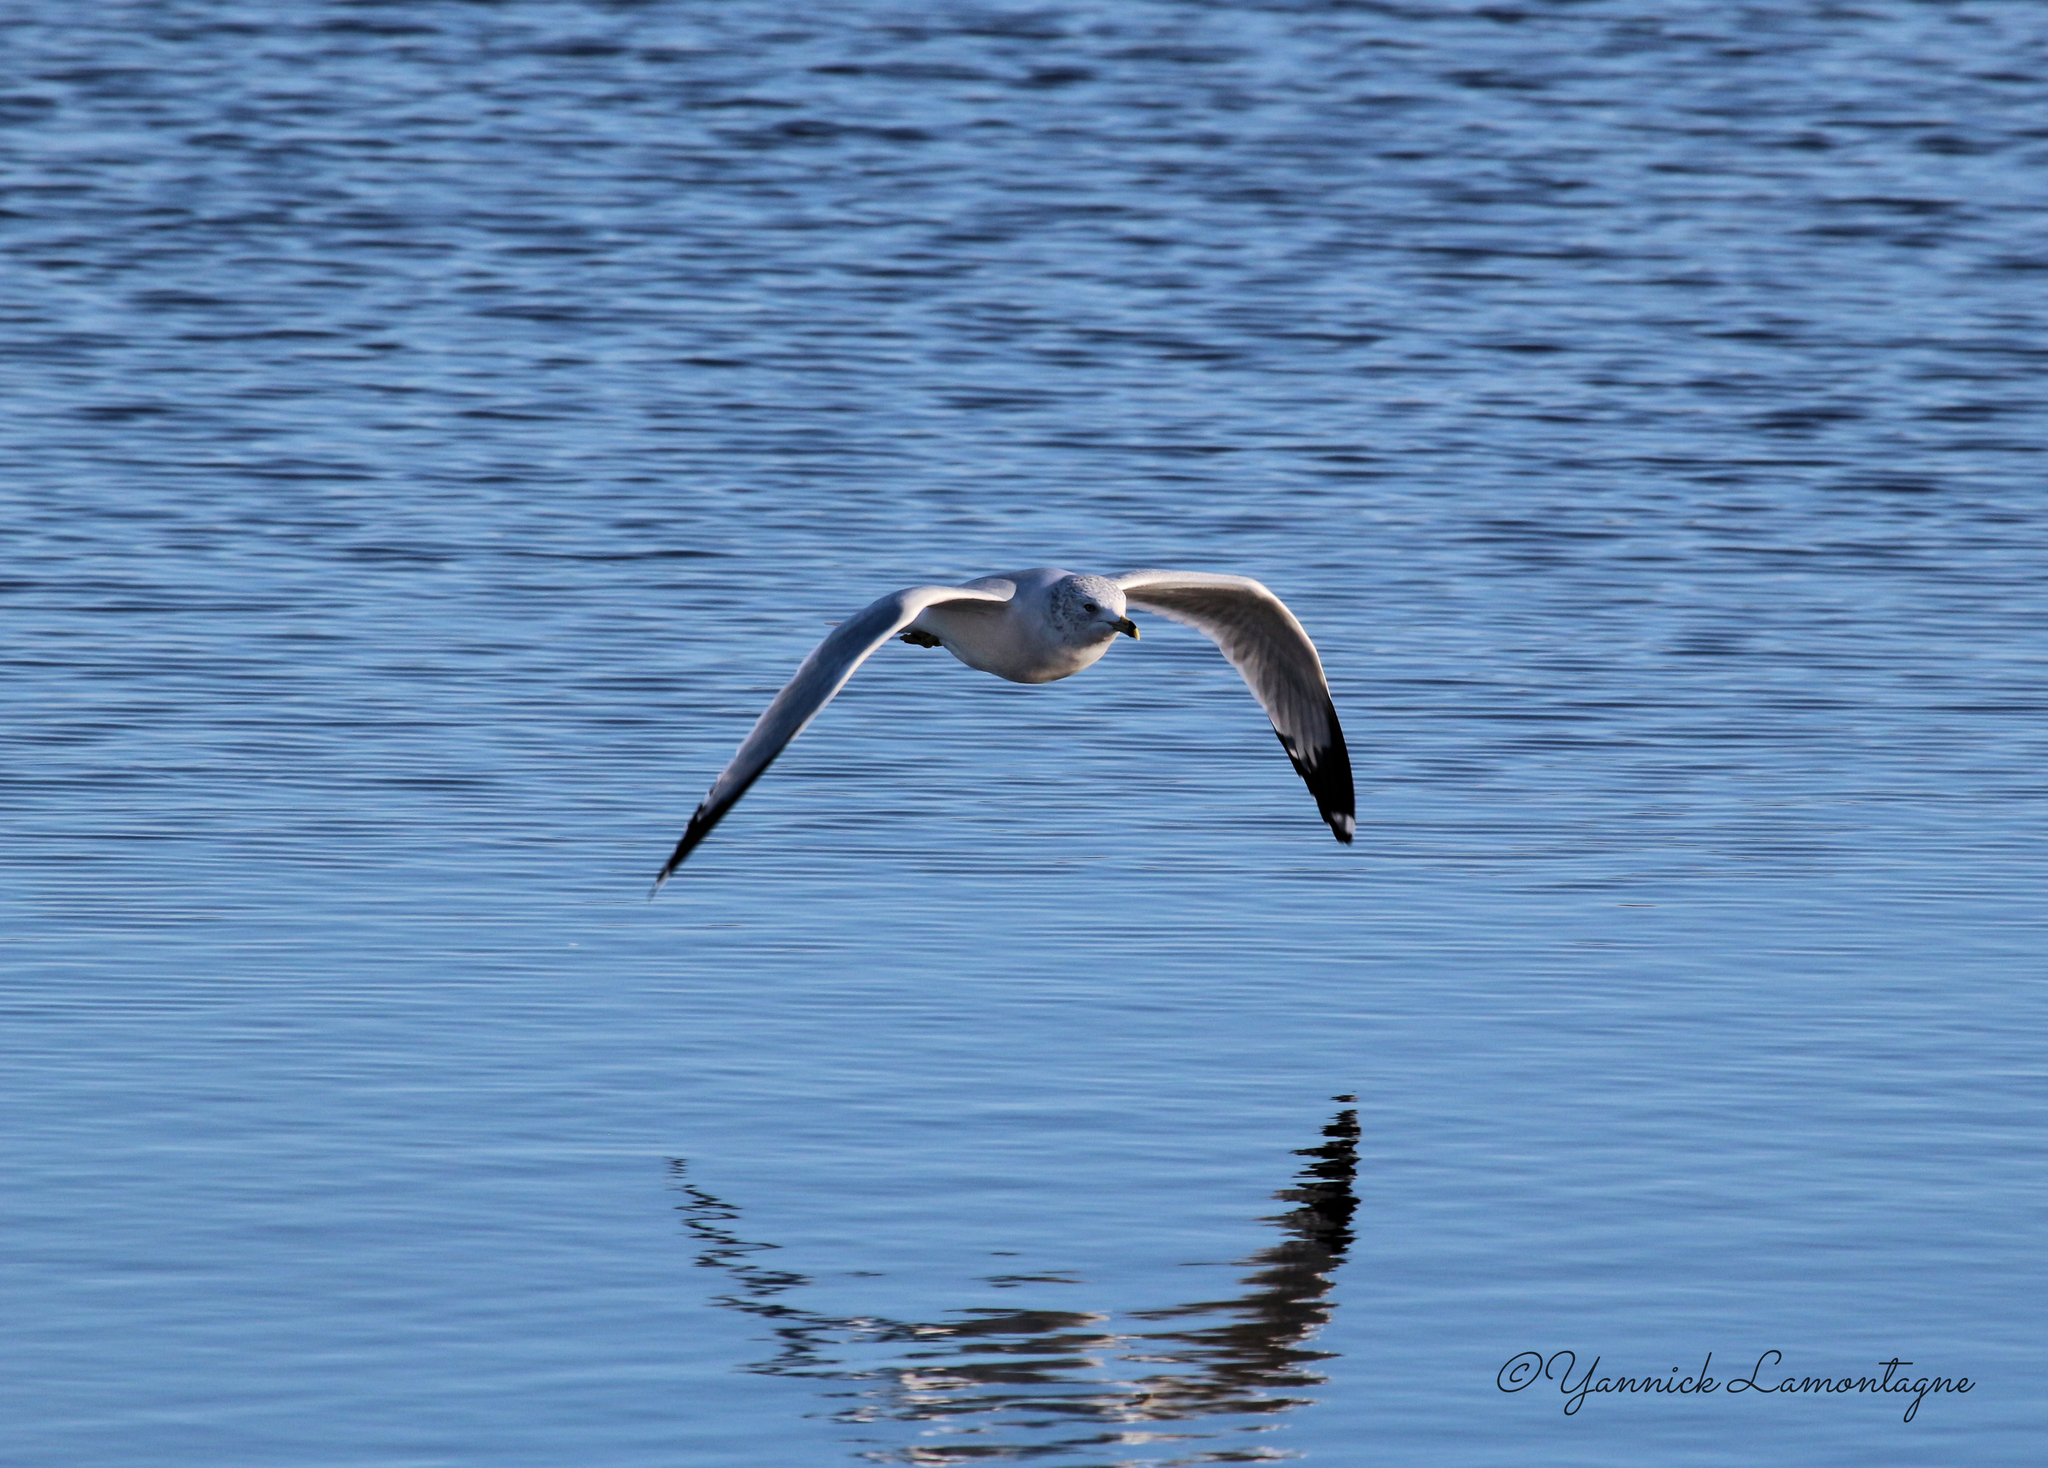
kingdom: Animalia
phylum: Chordata
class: Aves
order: Charadriiformes
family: Laridae
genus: Larus
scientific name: Larus delawarensis
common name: Ring-billed gull
